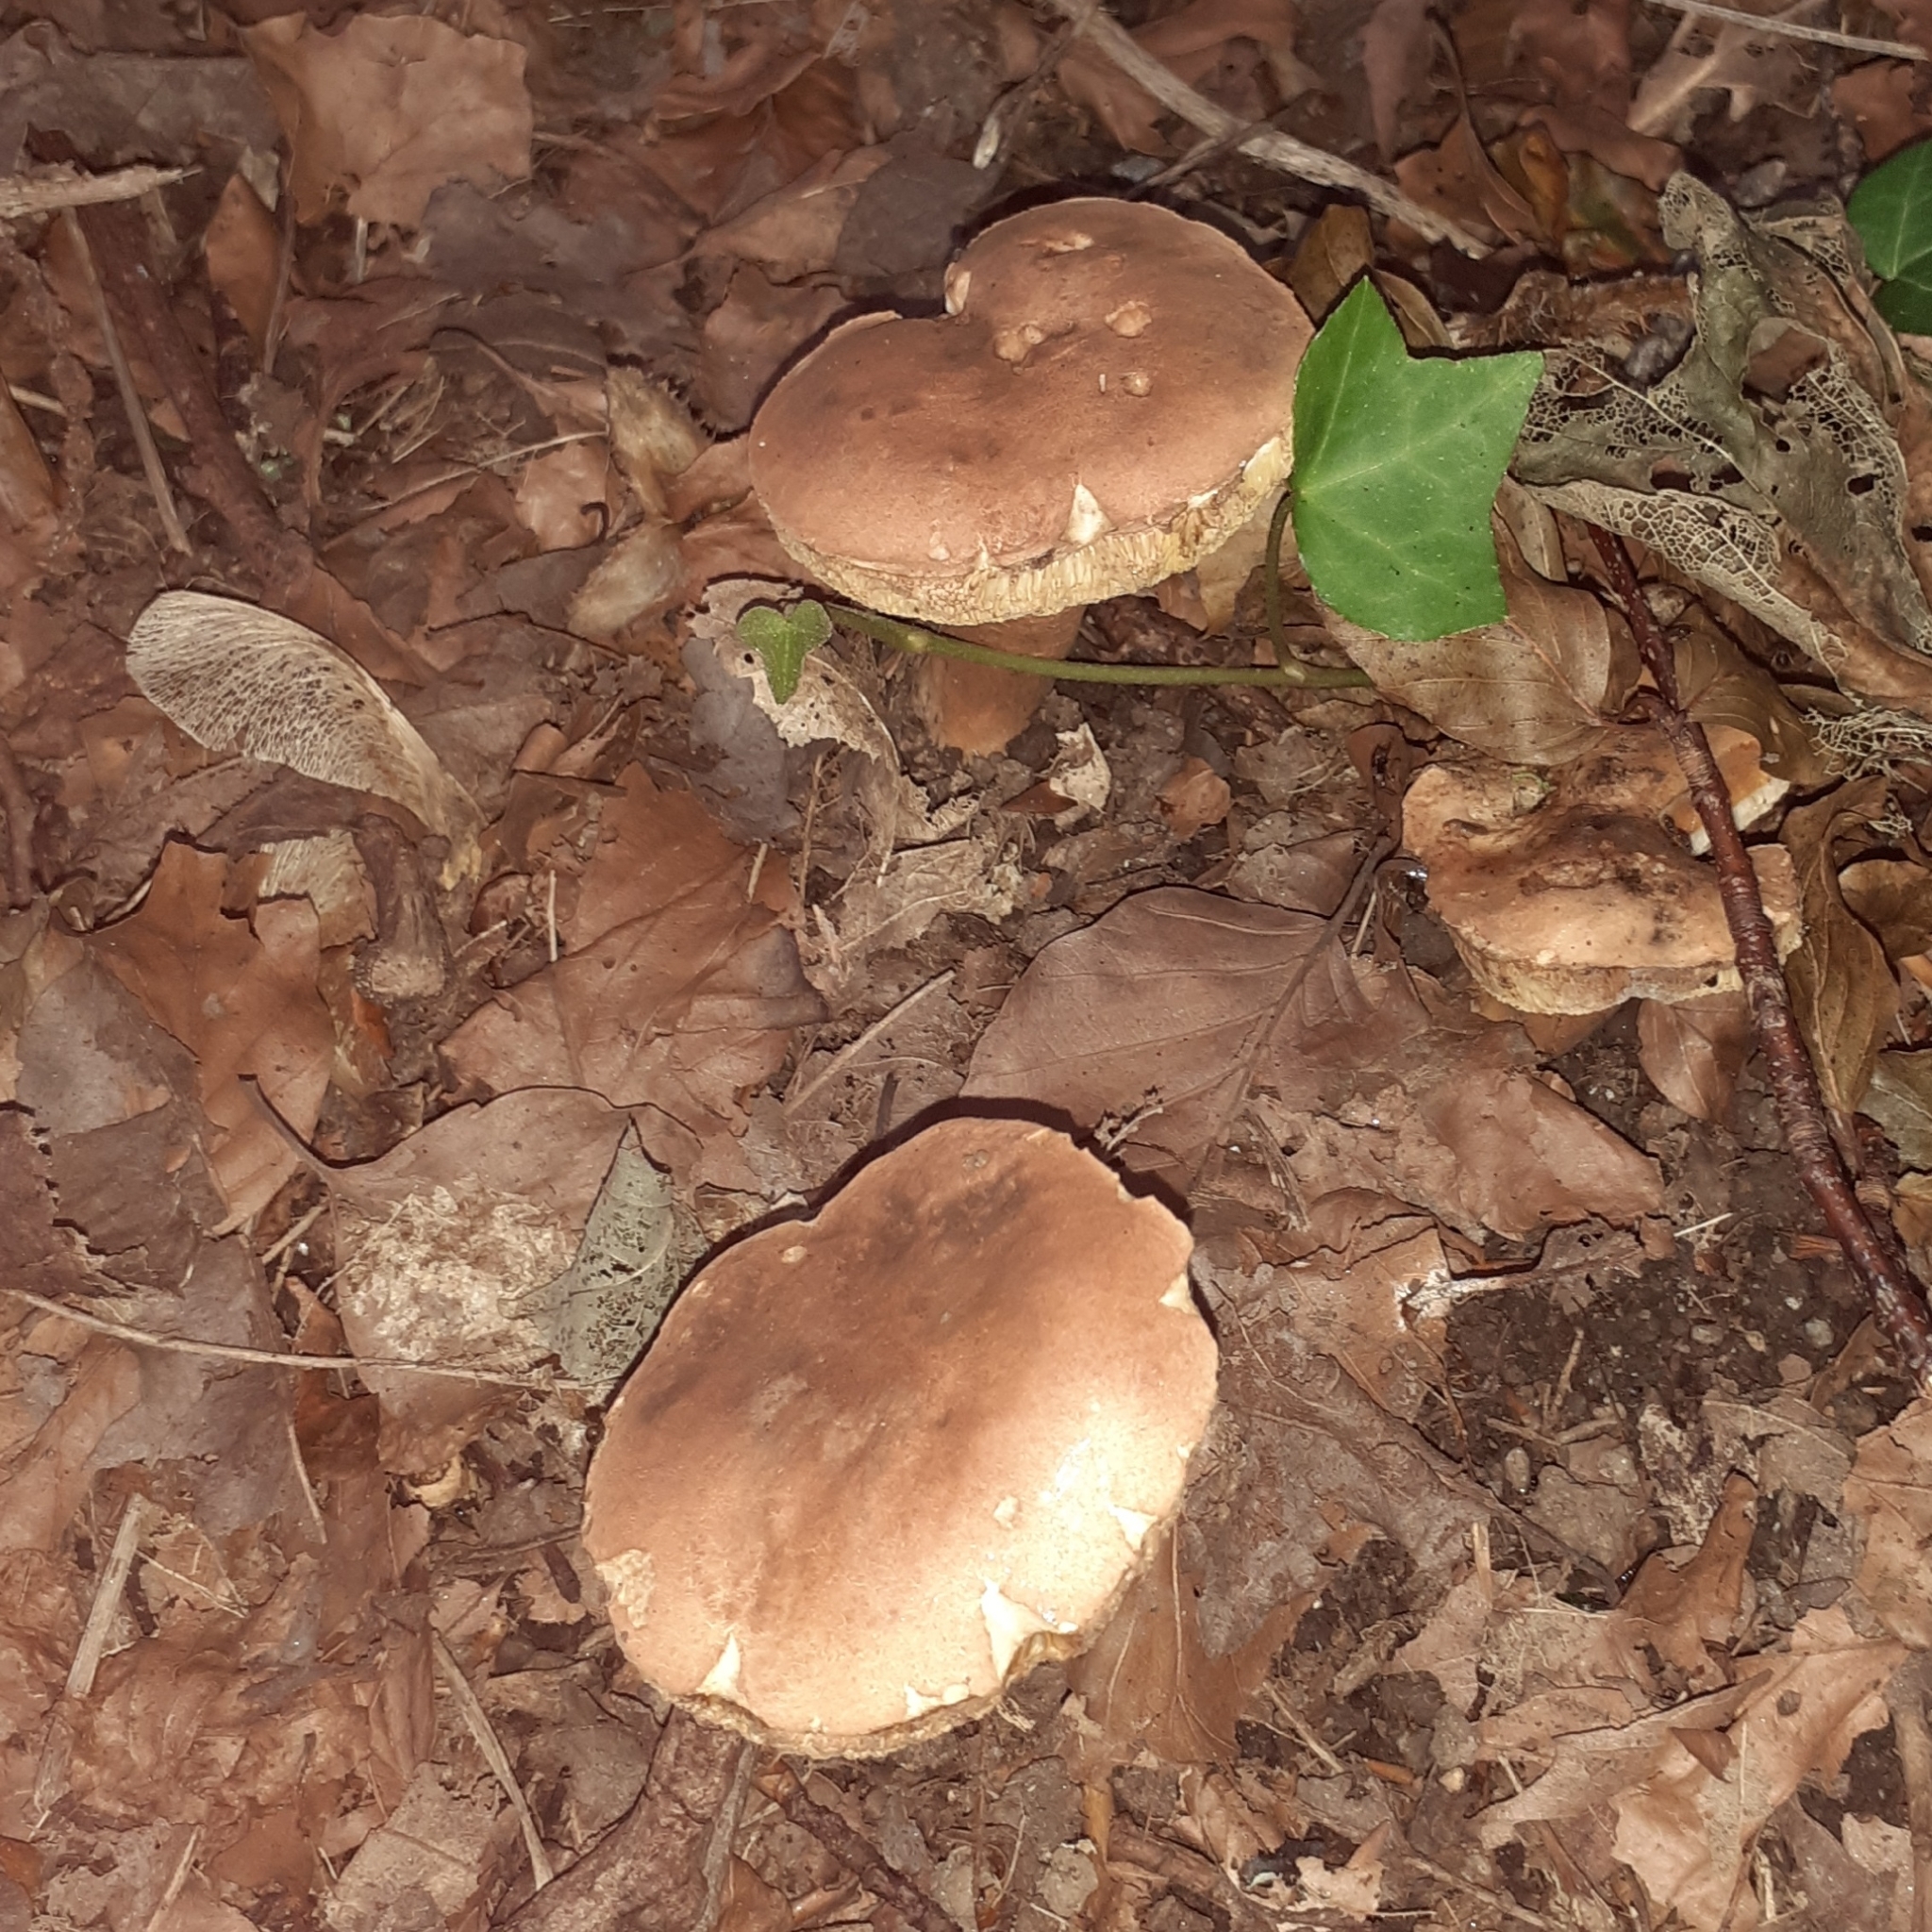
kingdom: Fungi
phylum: Basidiomycota
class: Agaricomycetes
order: Boletales
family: Gyroporaceae
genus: Gyroporus
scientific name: Gyroporus castaneus
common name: Chestnut bolete
